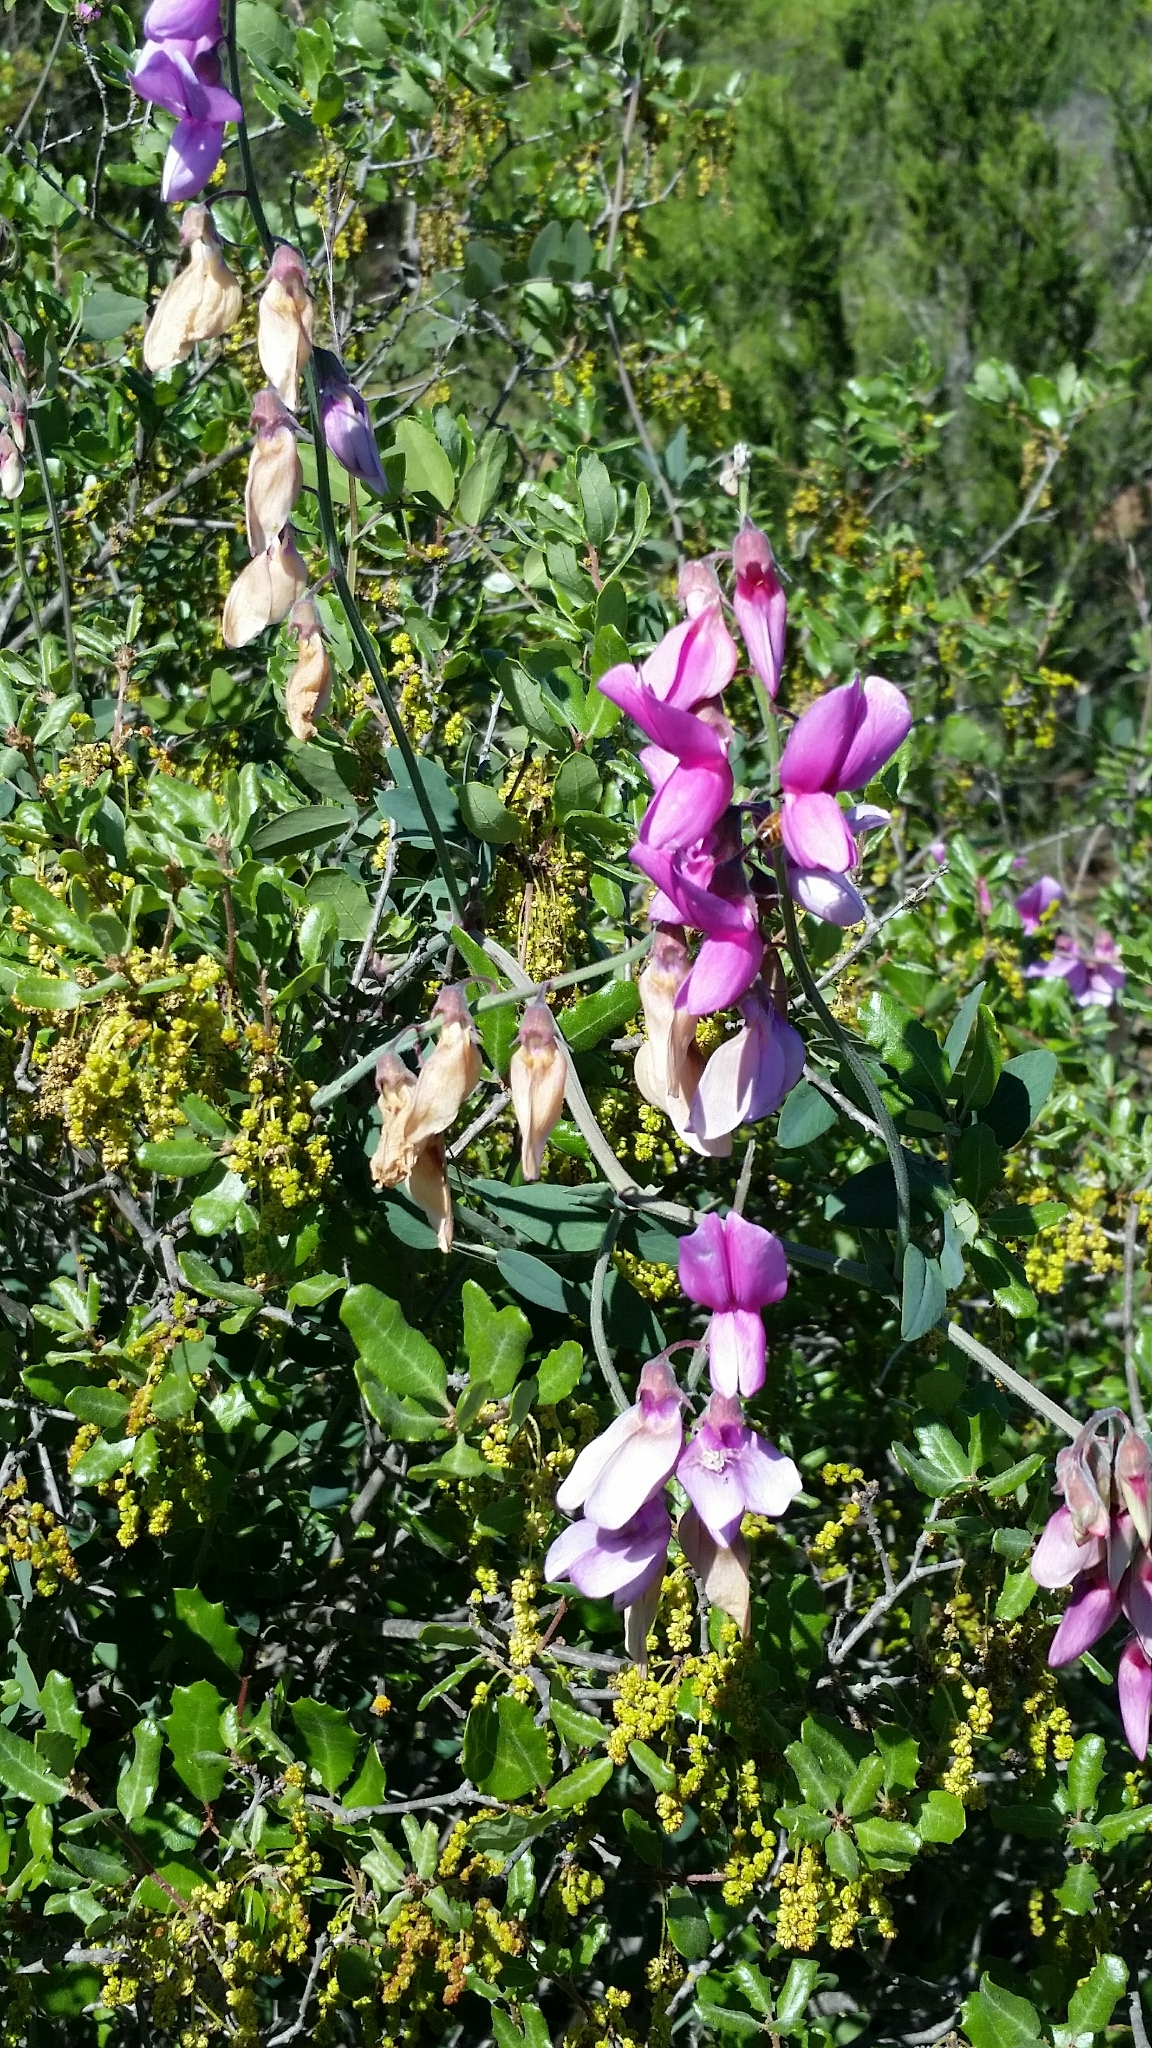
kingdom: Plantae
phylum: Tracheophyta
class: Magnoliopsida
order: Fabales
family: Fabaceae
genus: Lathyrus
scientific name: Lathyrus vestitus
